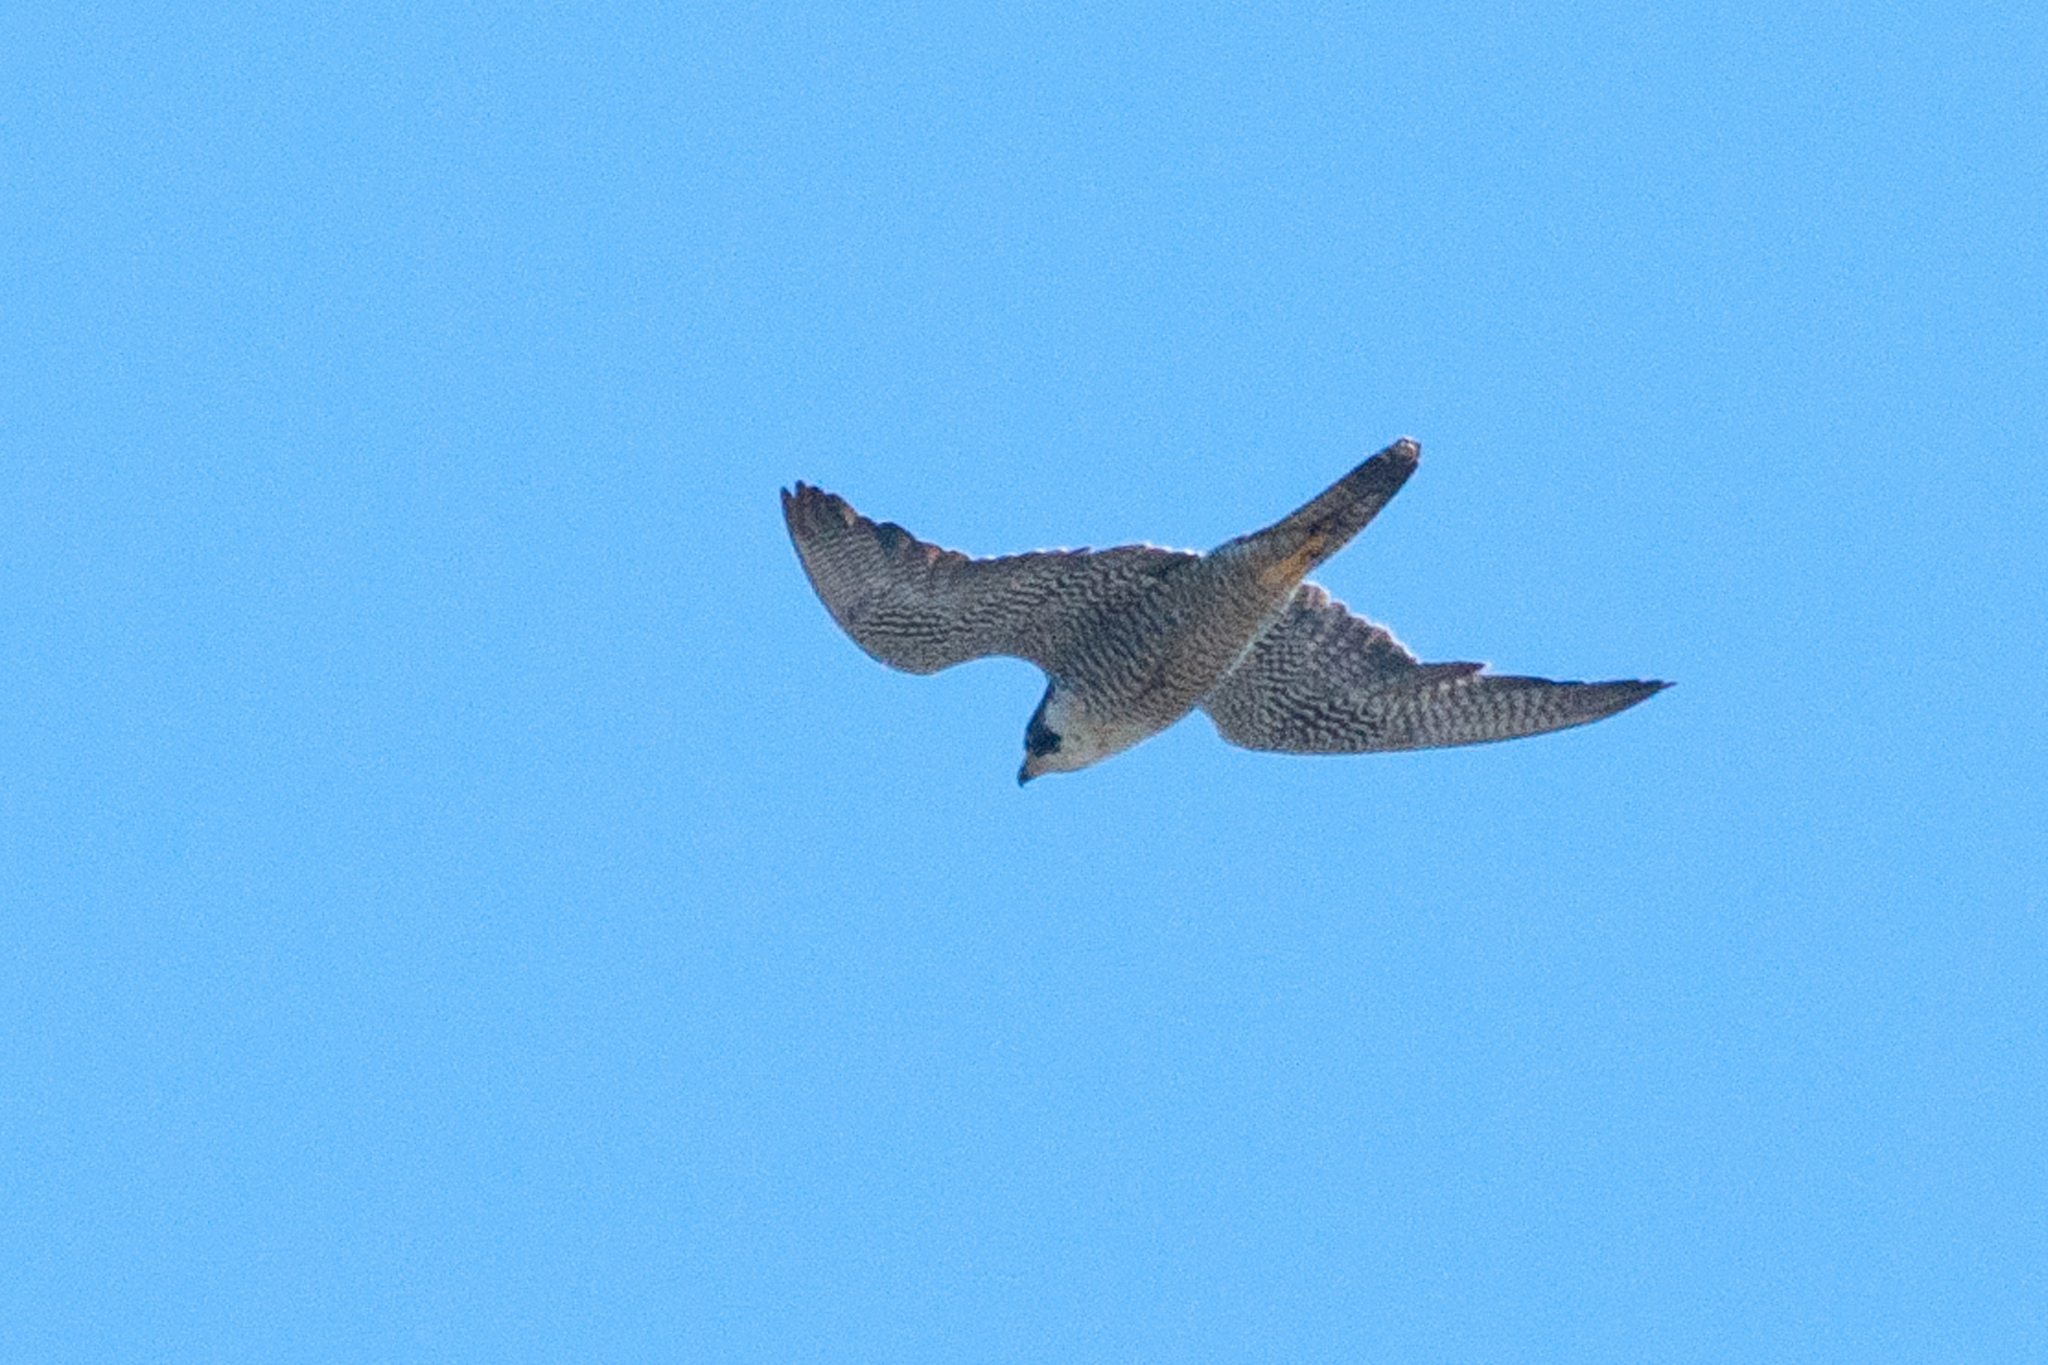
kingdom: Animalia
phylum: Chordata
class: Aves
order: Falconiformes
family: Falconidae
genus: Falco
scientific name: Falco peregrinus
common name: Peregrine falcon
